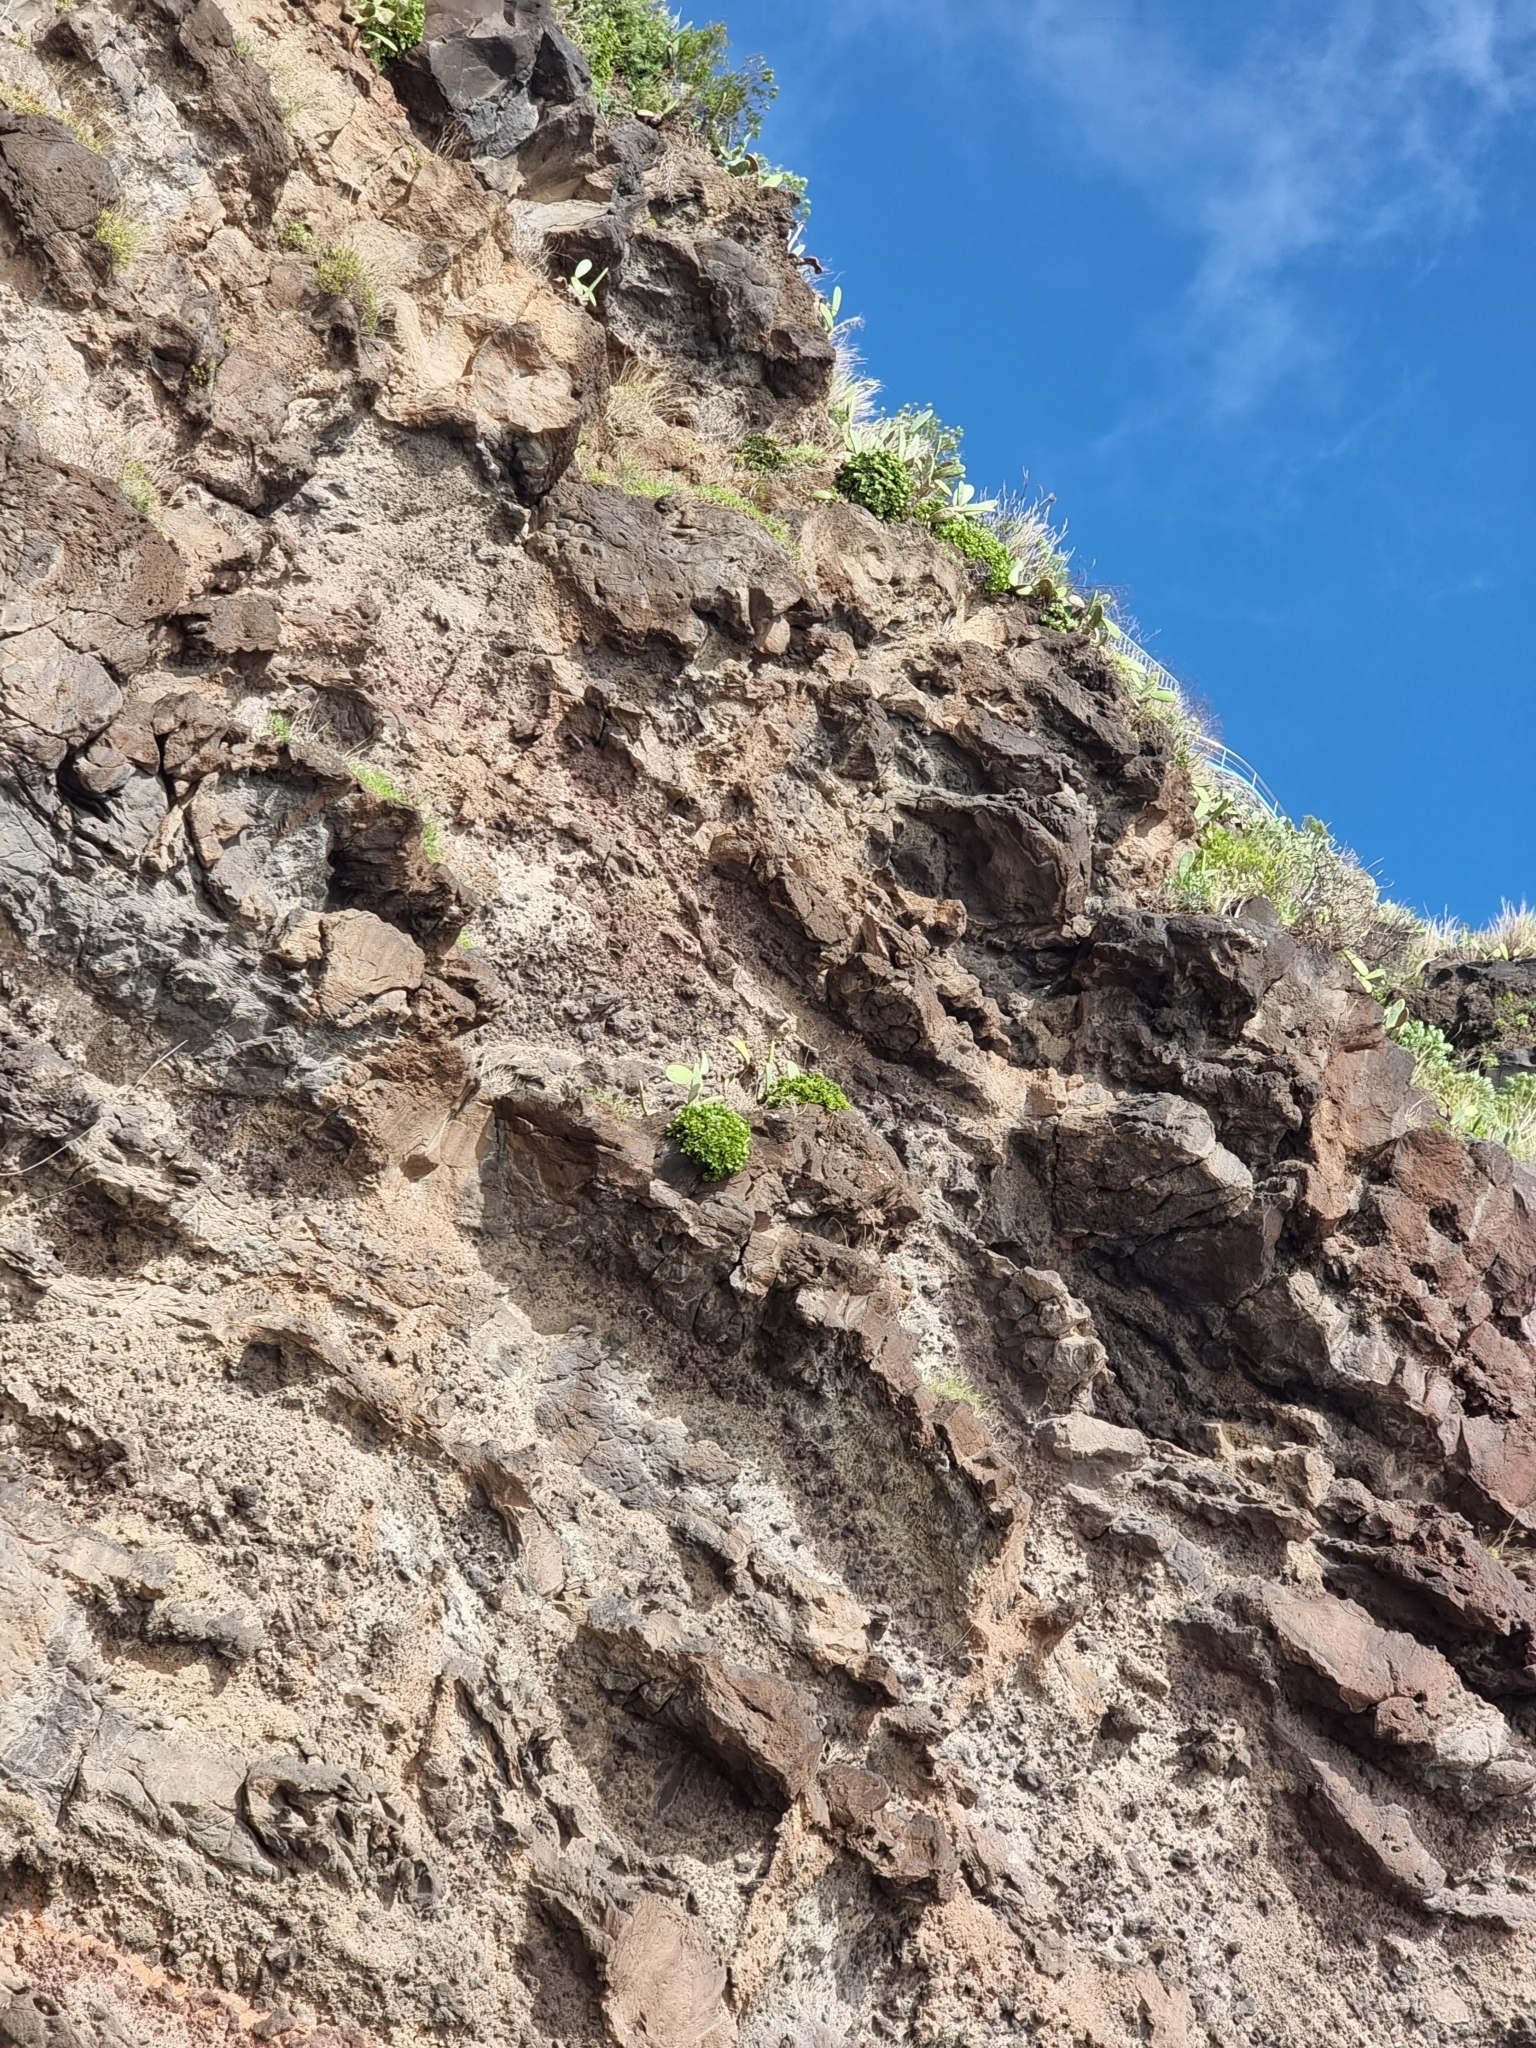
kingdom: Plantae
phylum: Tracheophyta
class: Magnoliopsida
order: Saxifragales
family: Crassulaceae
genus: Aeonium
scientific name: Aeonium glutinosum
